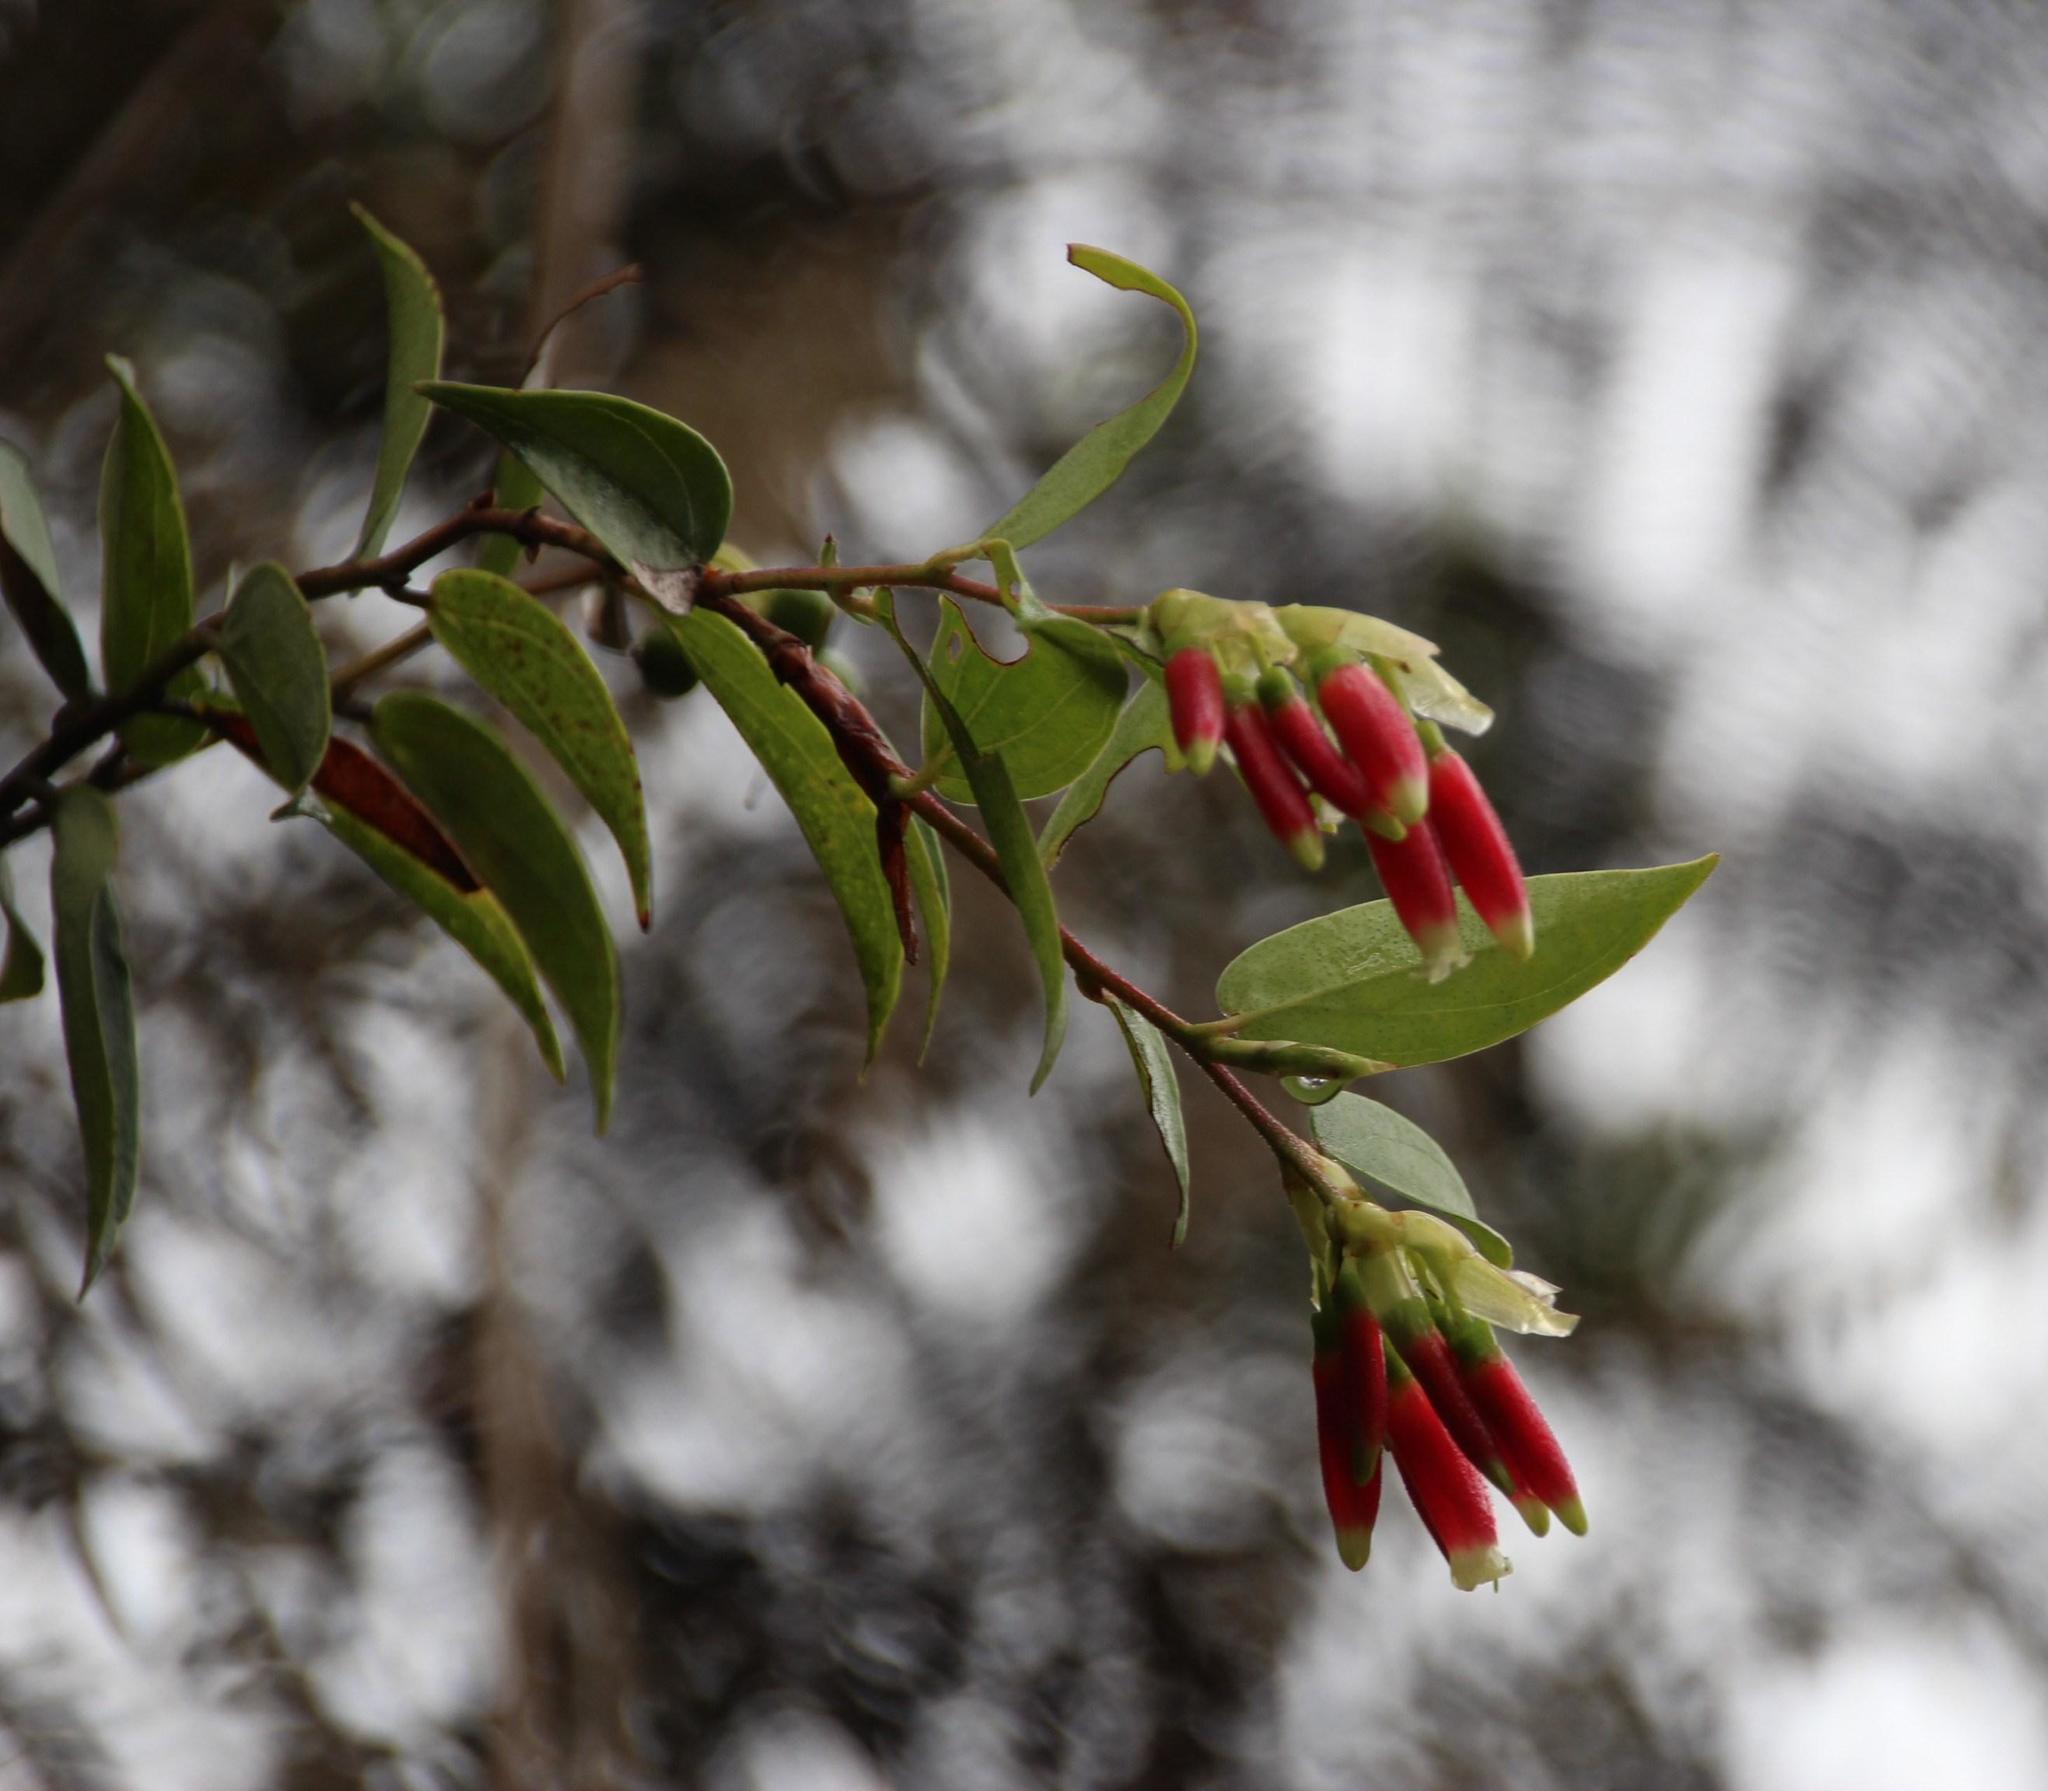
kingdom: Plantae
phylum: Tracheophyta
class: Magnoliopsida
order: Ericales
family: Ericaceae
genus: Cavendishia
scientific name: Cavendishia bracteata
